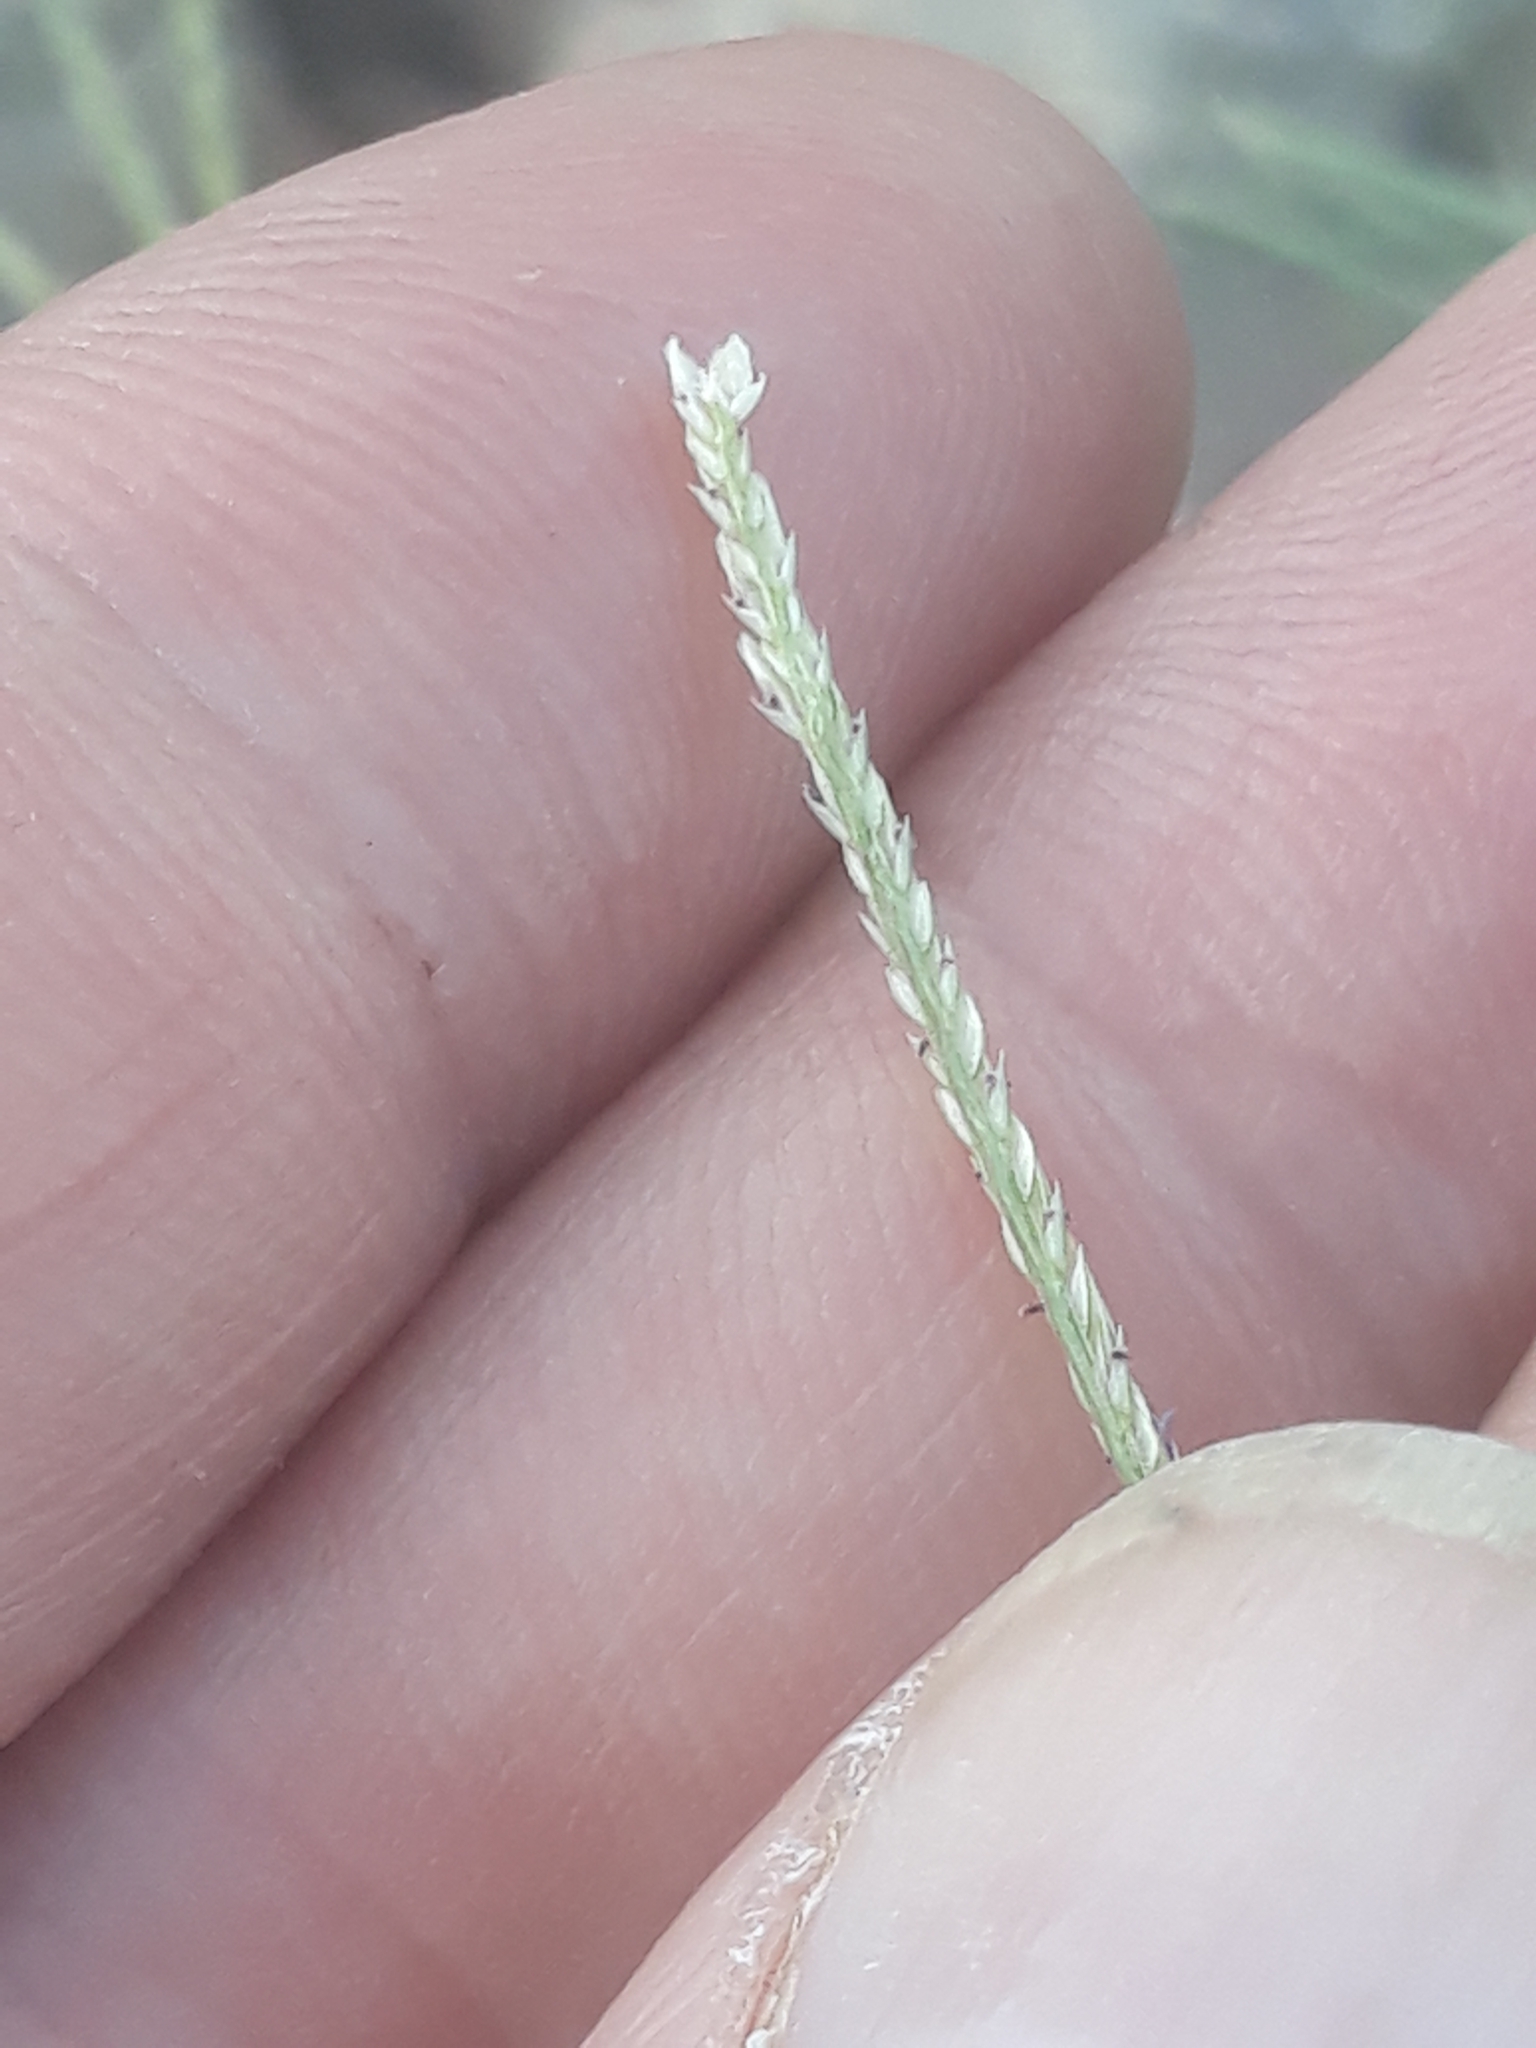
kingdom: Plantae
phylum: Tracheophyta
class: Liliopsida
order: Poales
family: Poaceae
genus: Cynodon
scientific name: Cynodon dactylon
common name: Bermuda grass
